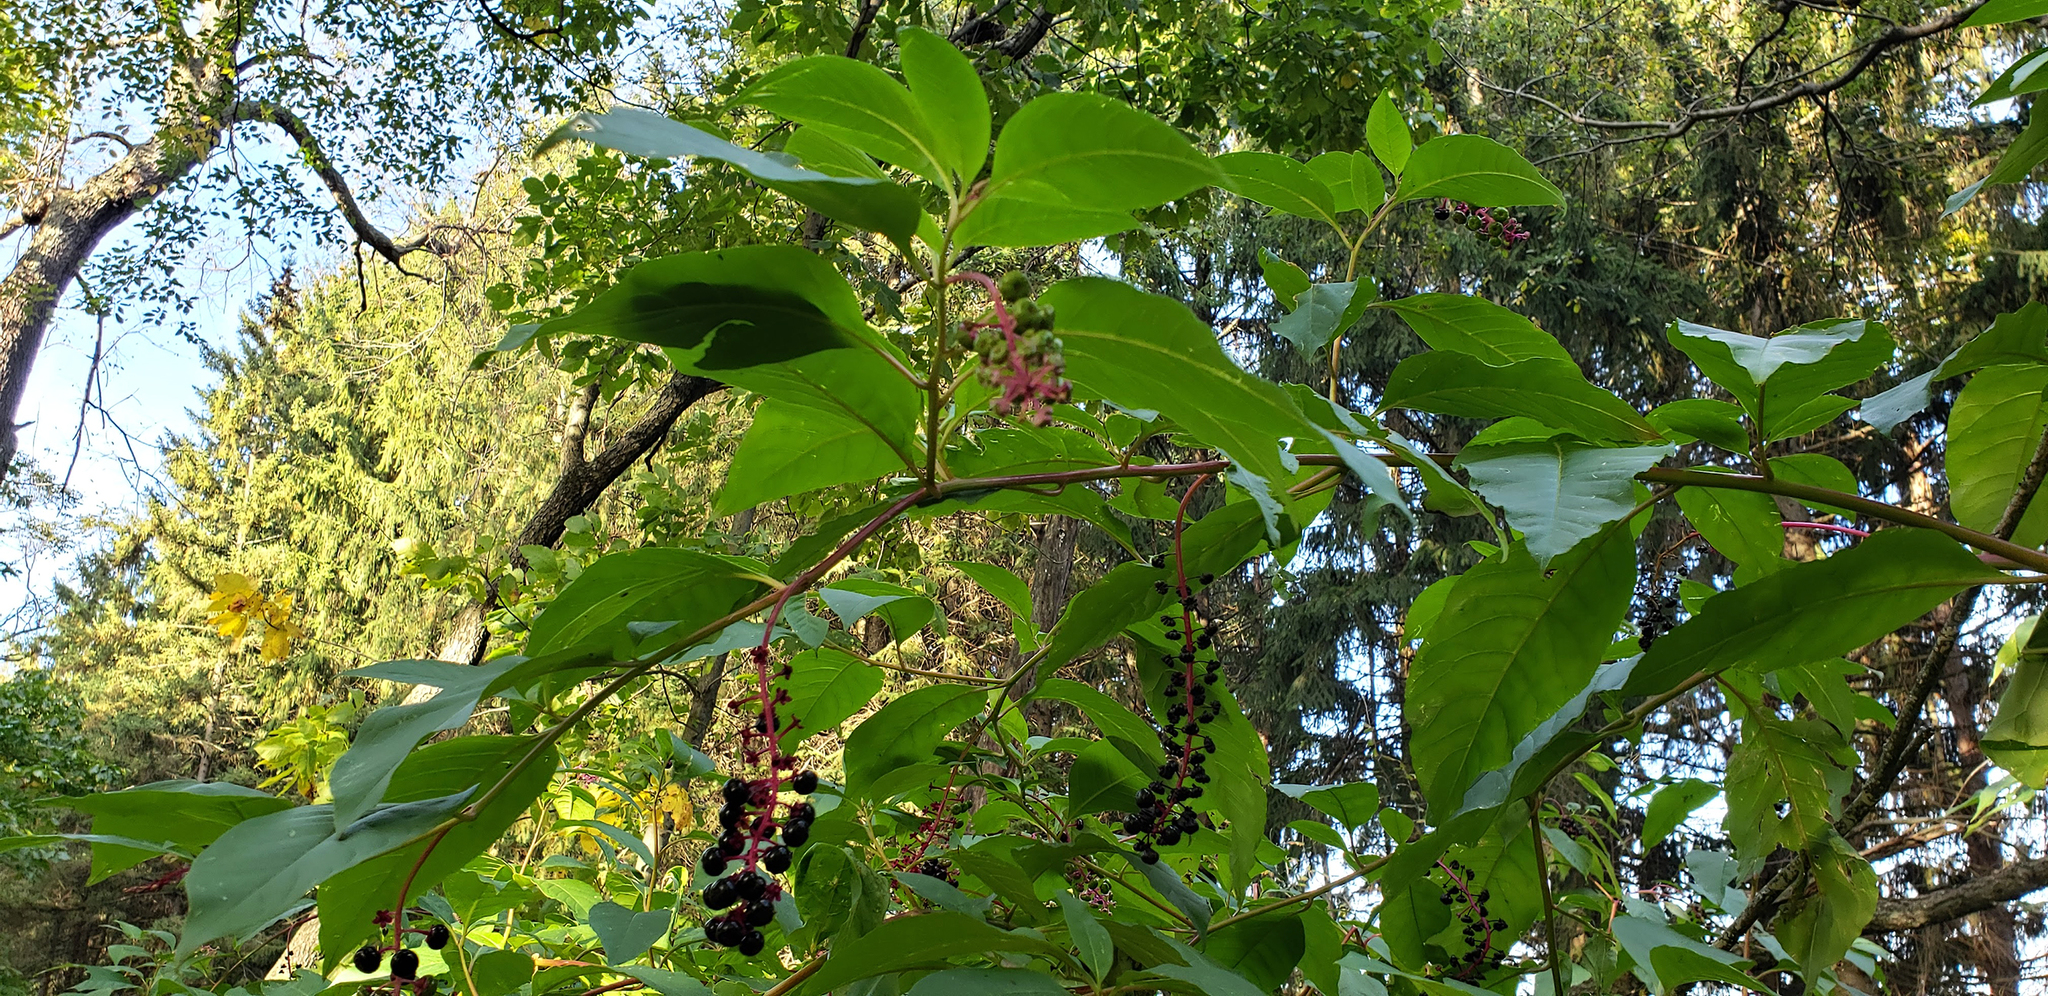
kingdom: Plantae
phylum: Tracheophyta
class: Magnoliopsida
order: Caryophyllales
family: Phytolaccaceae
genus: Phytolacca
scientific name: Phytolacca americana
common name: American pokeweed
